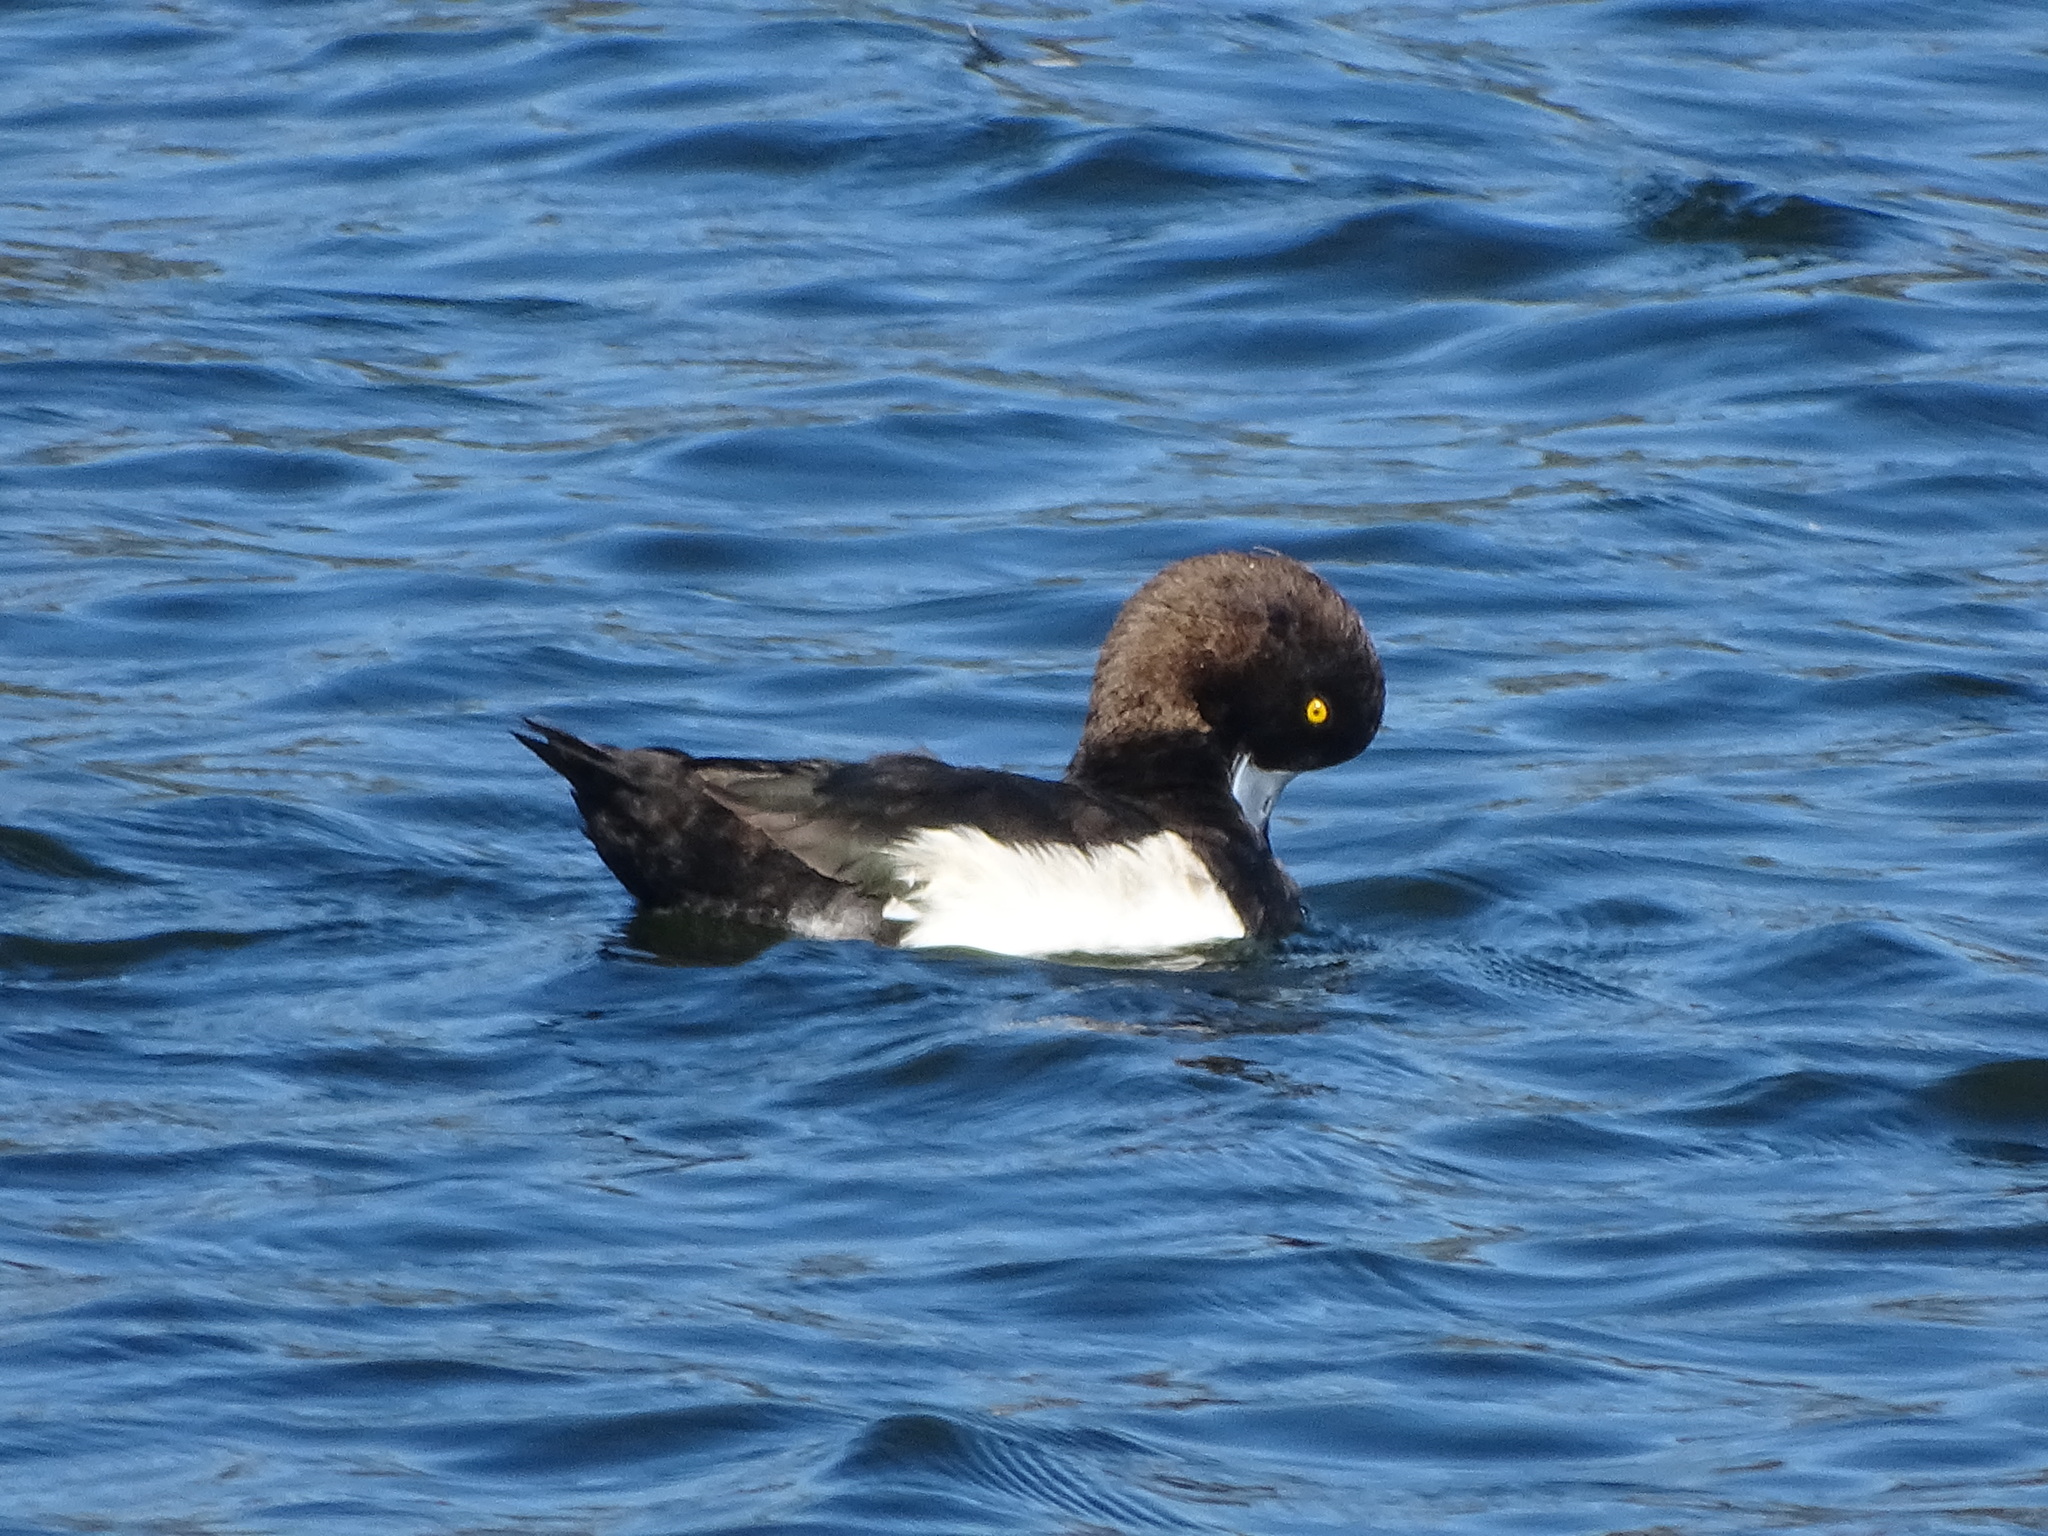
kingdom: Animalia
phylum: Chordata
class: Aves
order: Anseriformes
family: Anatidae
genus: Aythya
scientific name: Aythya fuligula
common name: Tufted duck
